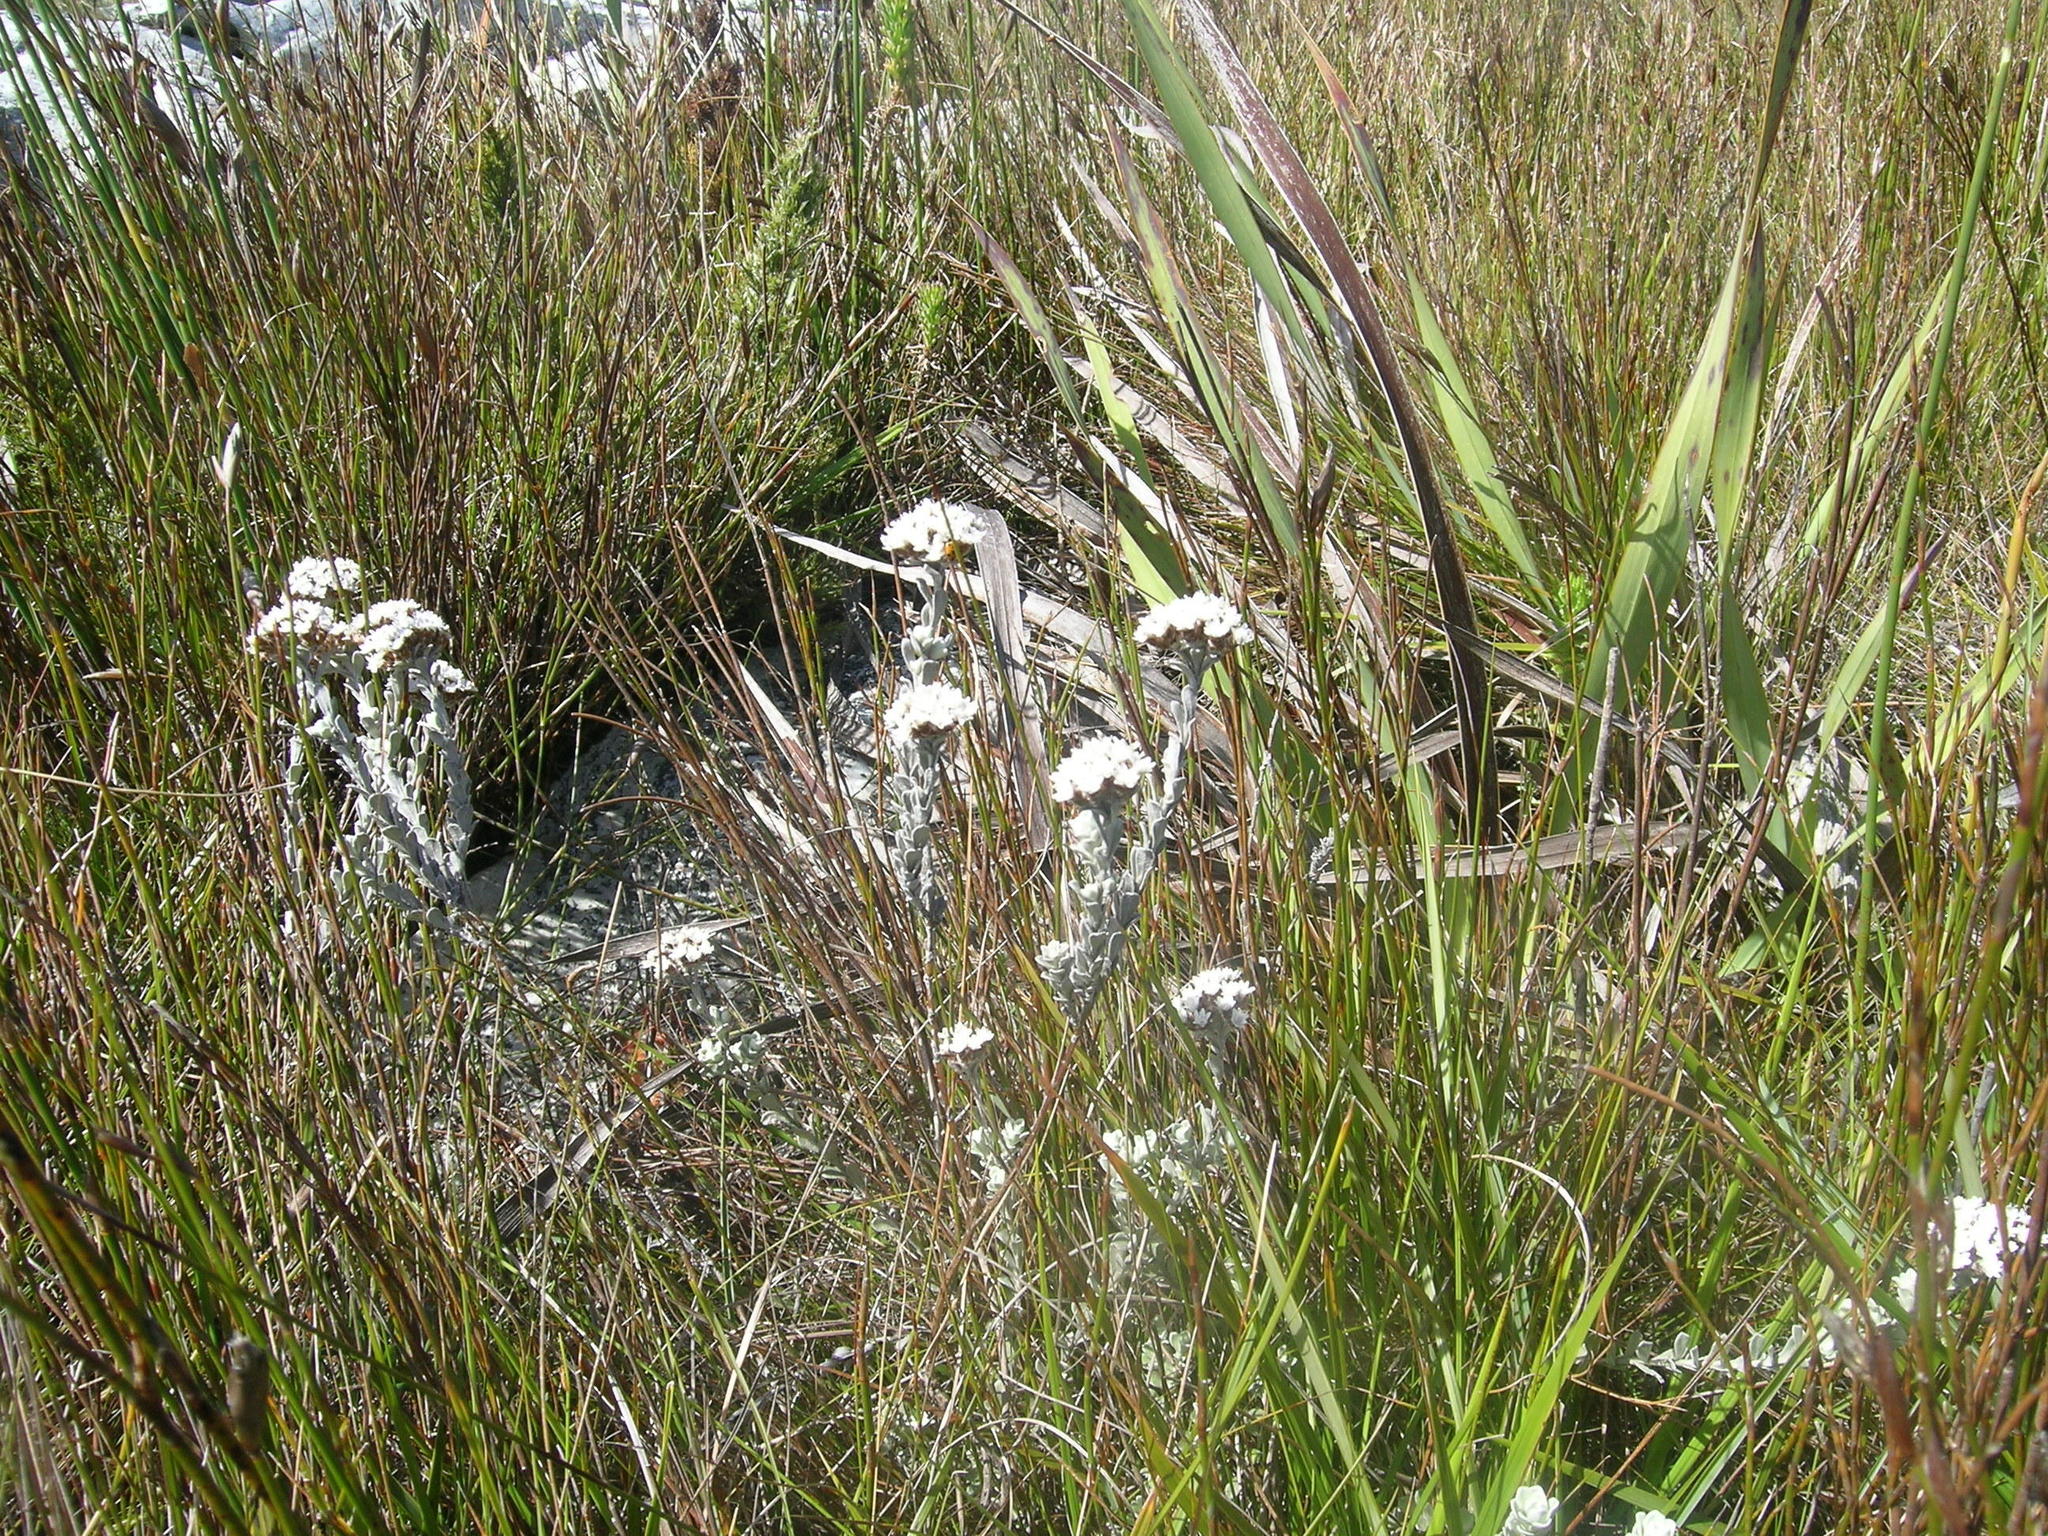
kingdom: Plantae
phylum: Tracheophyta
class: Magnoliopsida
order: Asterales
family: Asteraceae
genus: Langebergia
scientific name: Langebergia canescens
